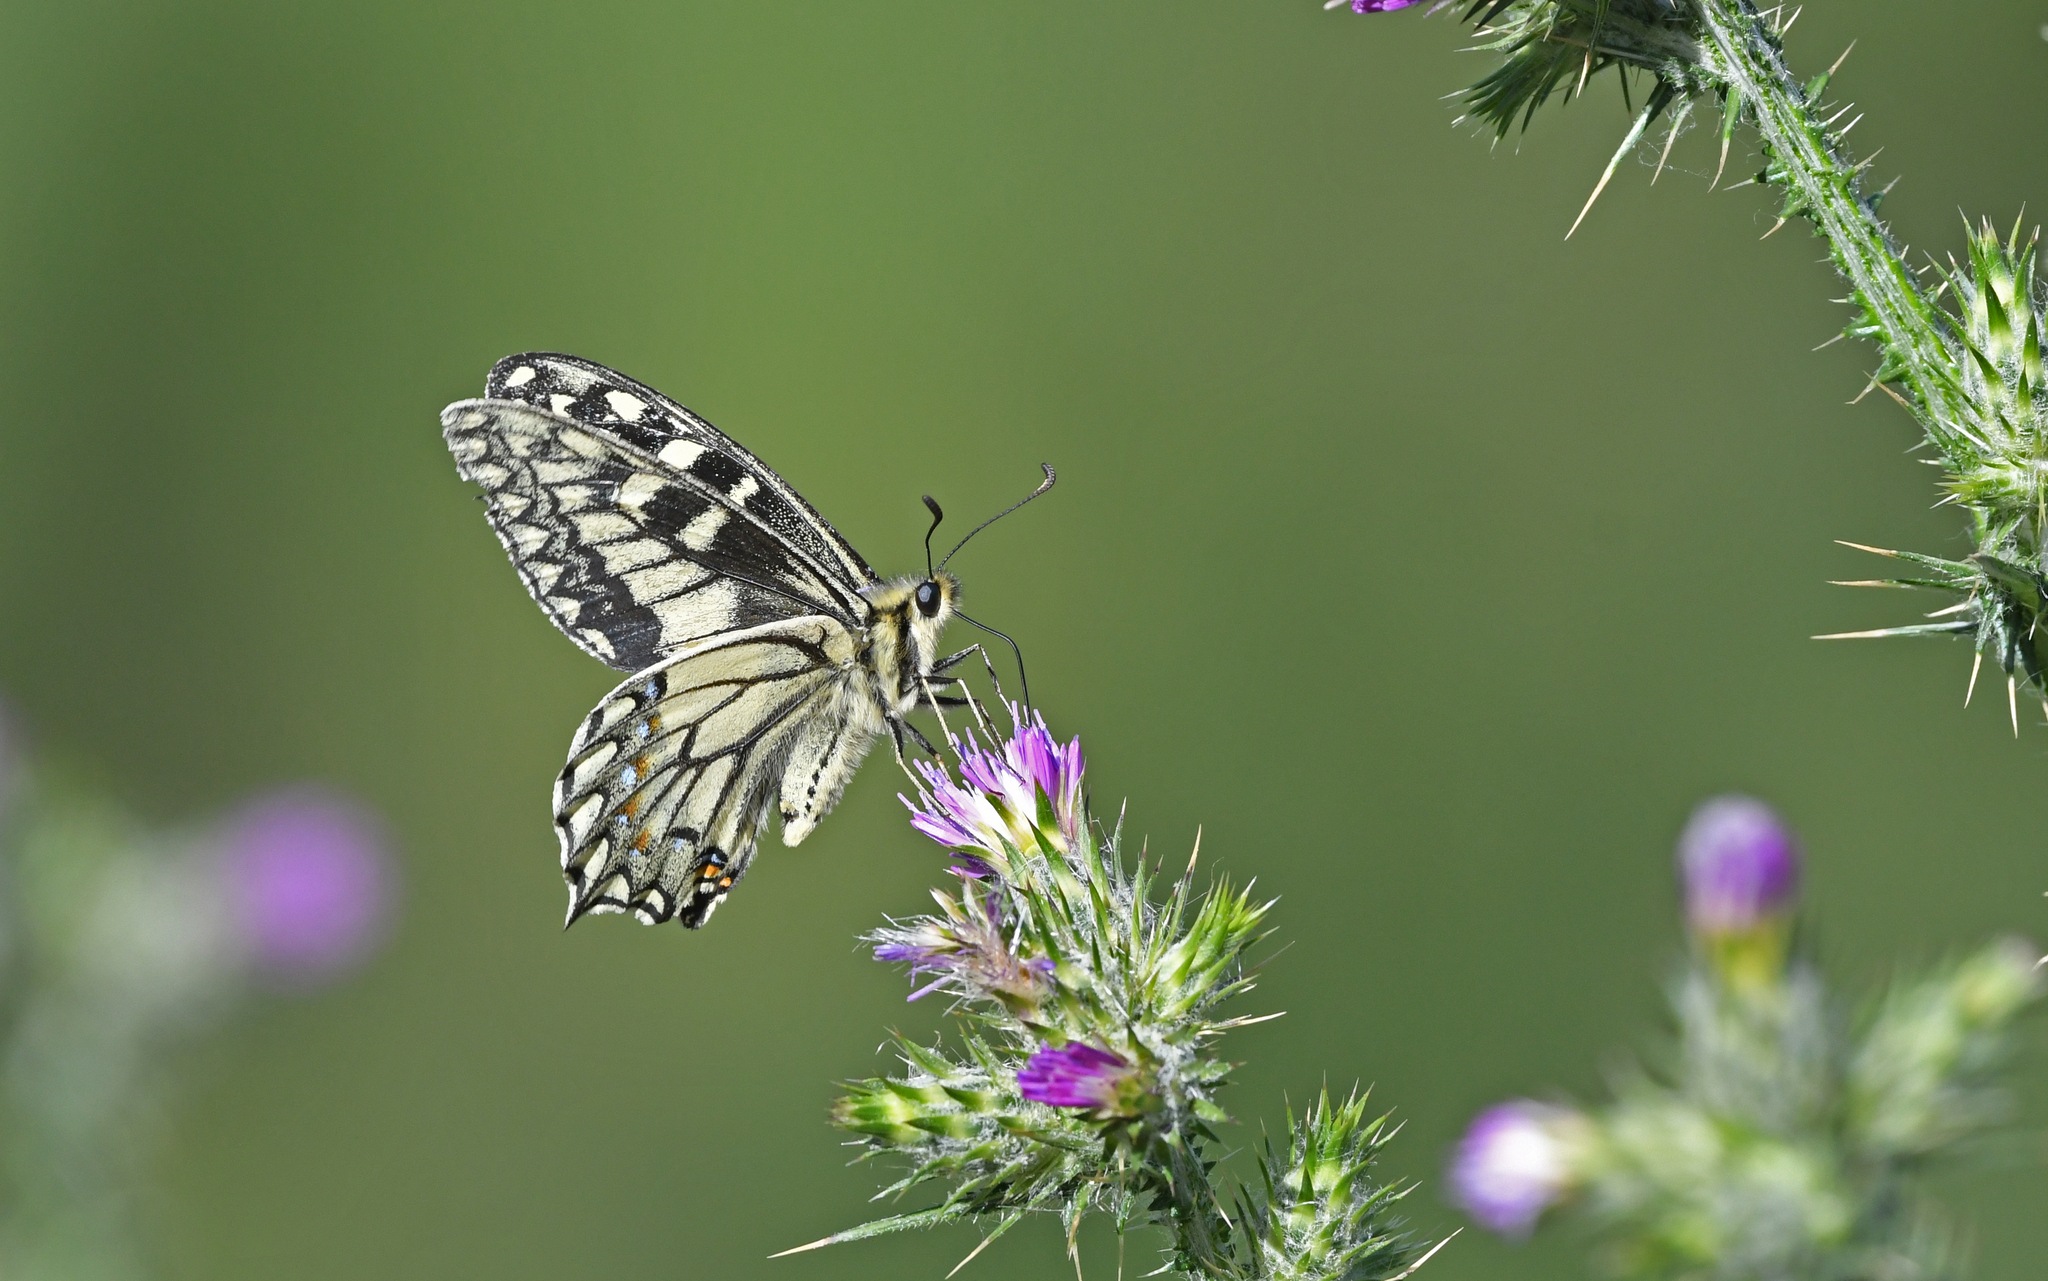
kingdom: Animalia
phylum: Arthropoda
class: Insecta
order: Lepidoptera
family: Papilionidae
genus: Papilio
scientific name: Papilio hospiton
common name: Corsican swallowtail
